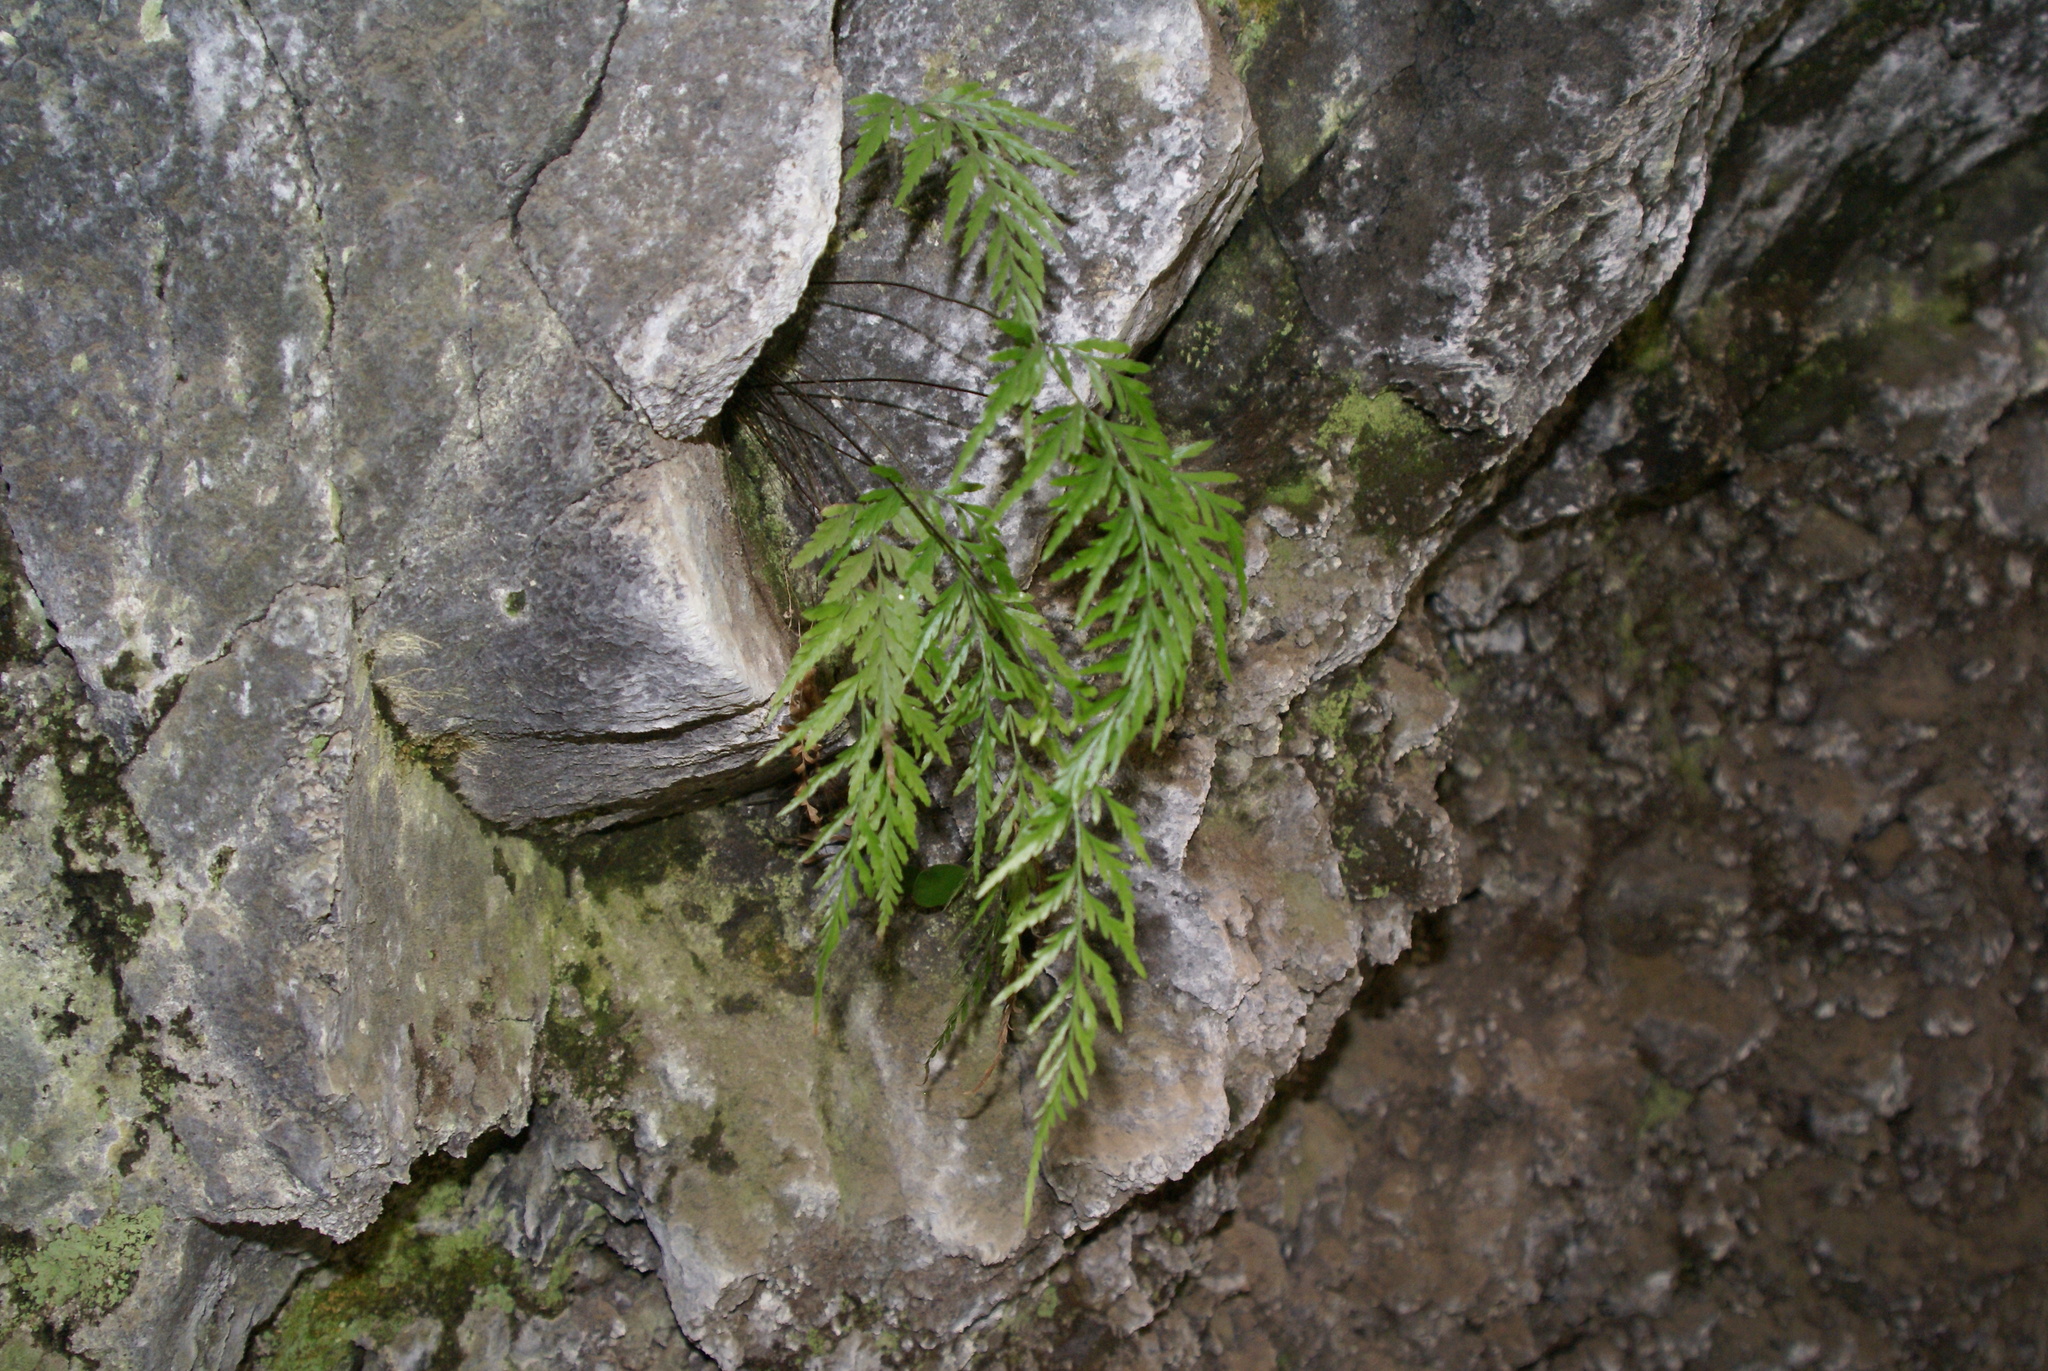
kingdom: Plantae
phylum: Tracheophyta
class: Polypodiopsida
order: Polypodiales
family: Aspleniaceae
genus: Asplenium
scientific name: Asplenium onopteris
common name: Irish spleenwort
